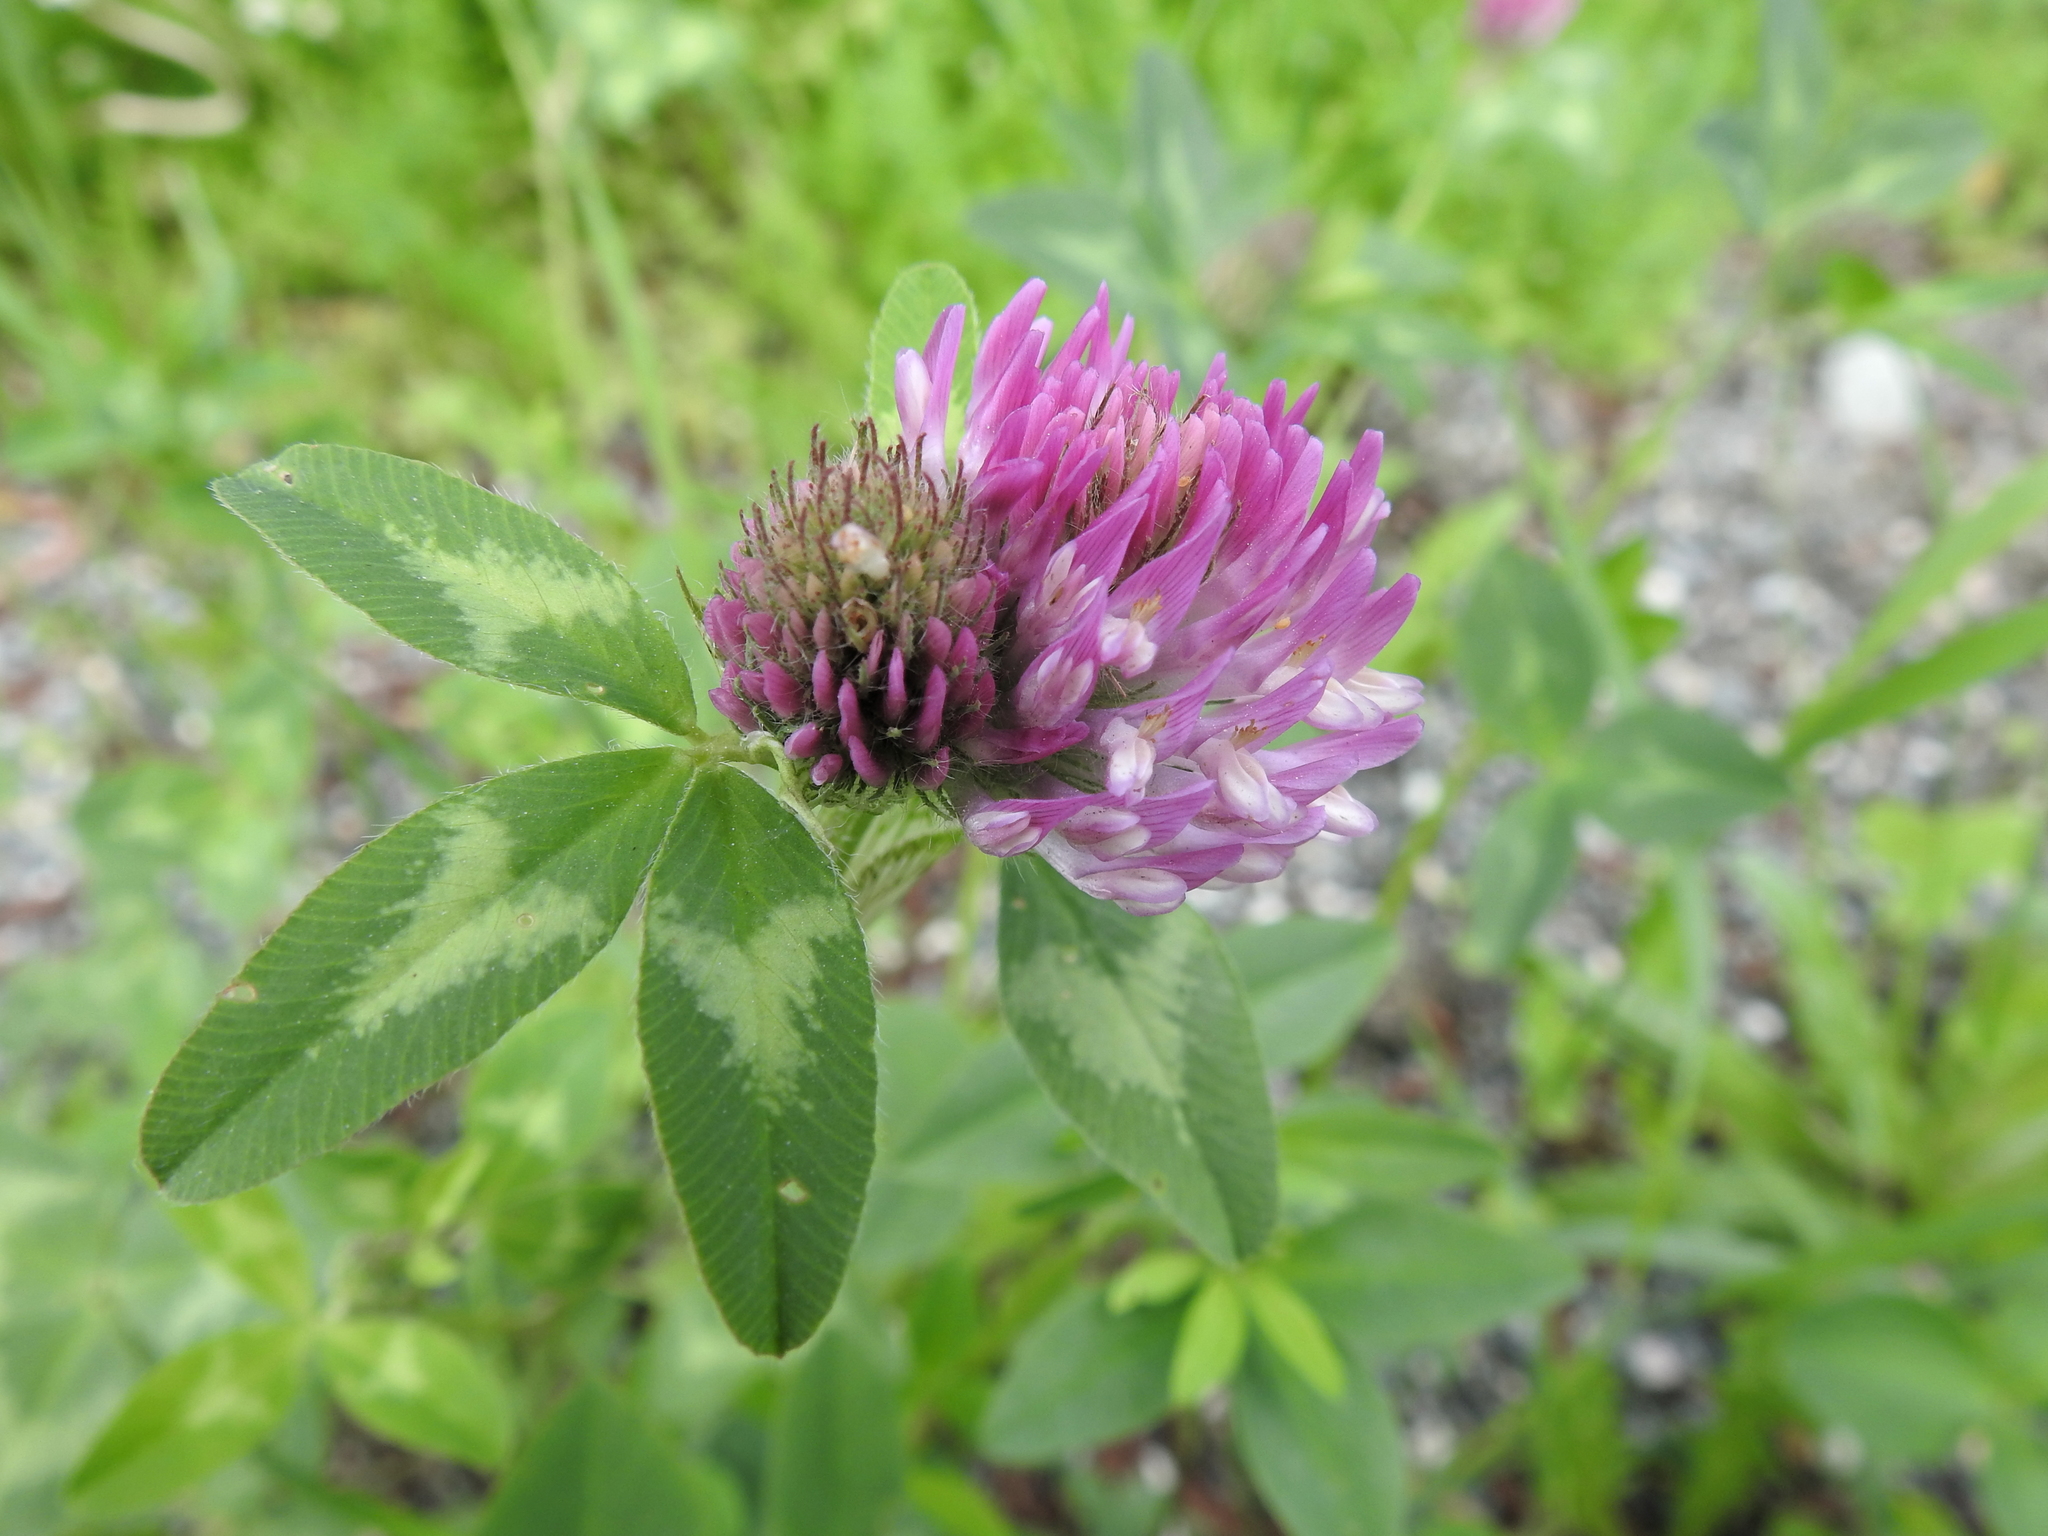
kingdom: Plantae
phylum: Tracheophyta
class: Magnoliopsida
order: Fabales
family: Fabaceae
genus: Trifolium
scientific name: Trifolium pratense
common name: Red clover
